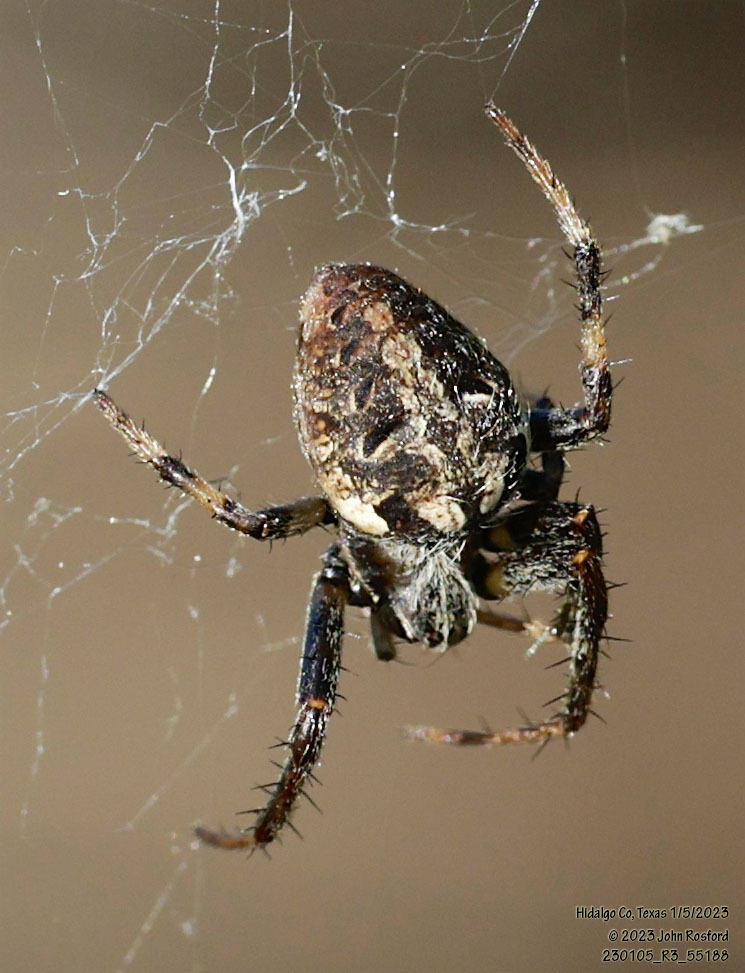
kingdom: Animalia
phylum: Arthropoda
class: Arachnida
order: Araneae
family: Araneidae
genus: Neoscona
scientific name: Neoscona arabesca
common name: Orb weavers
